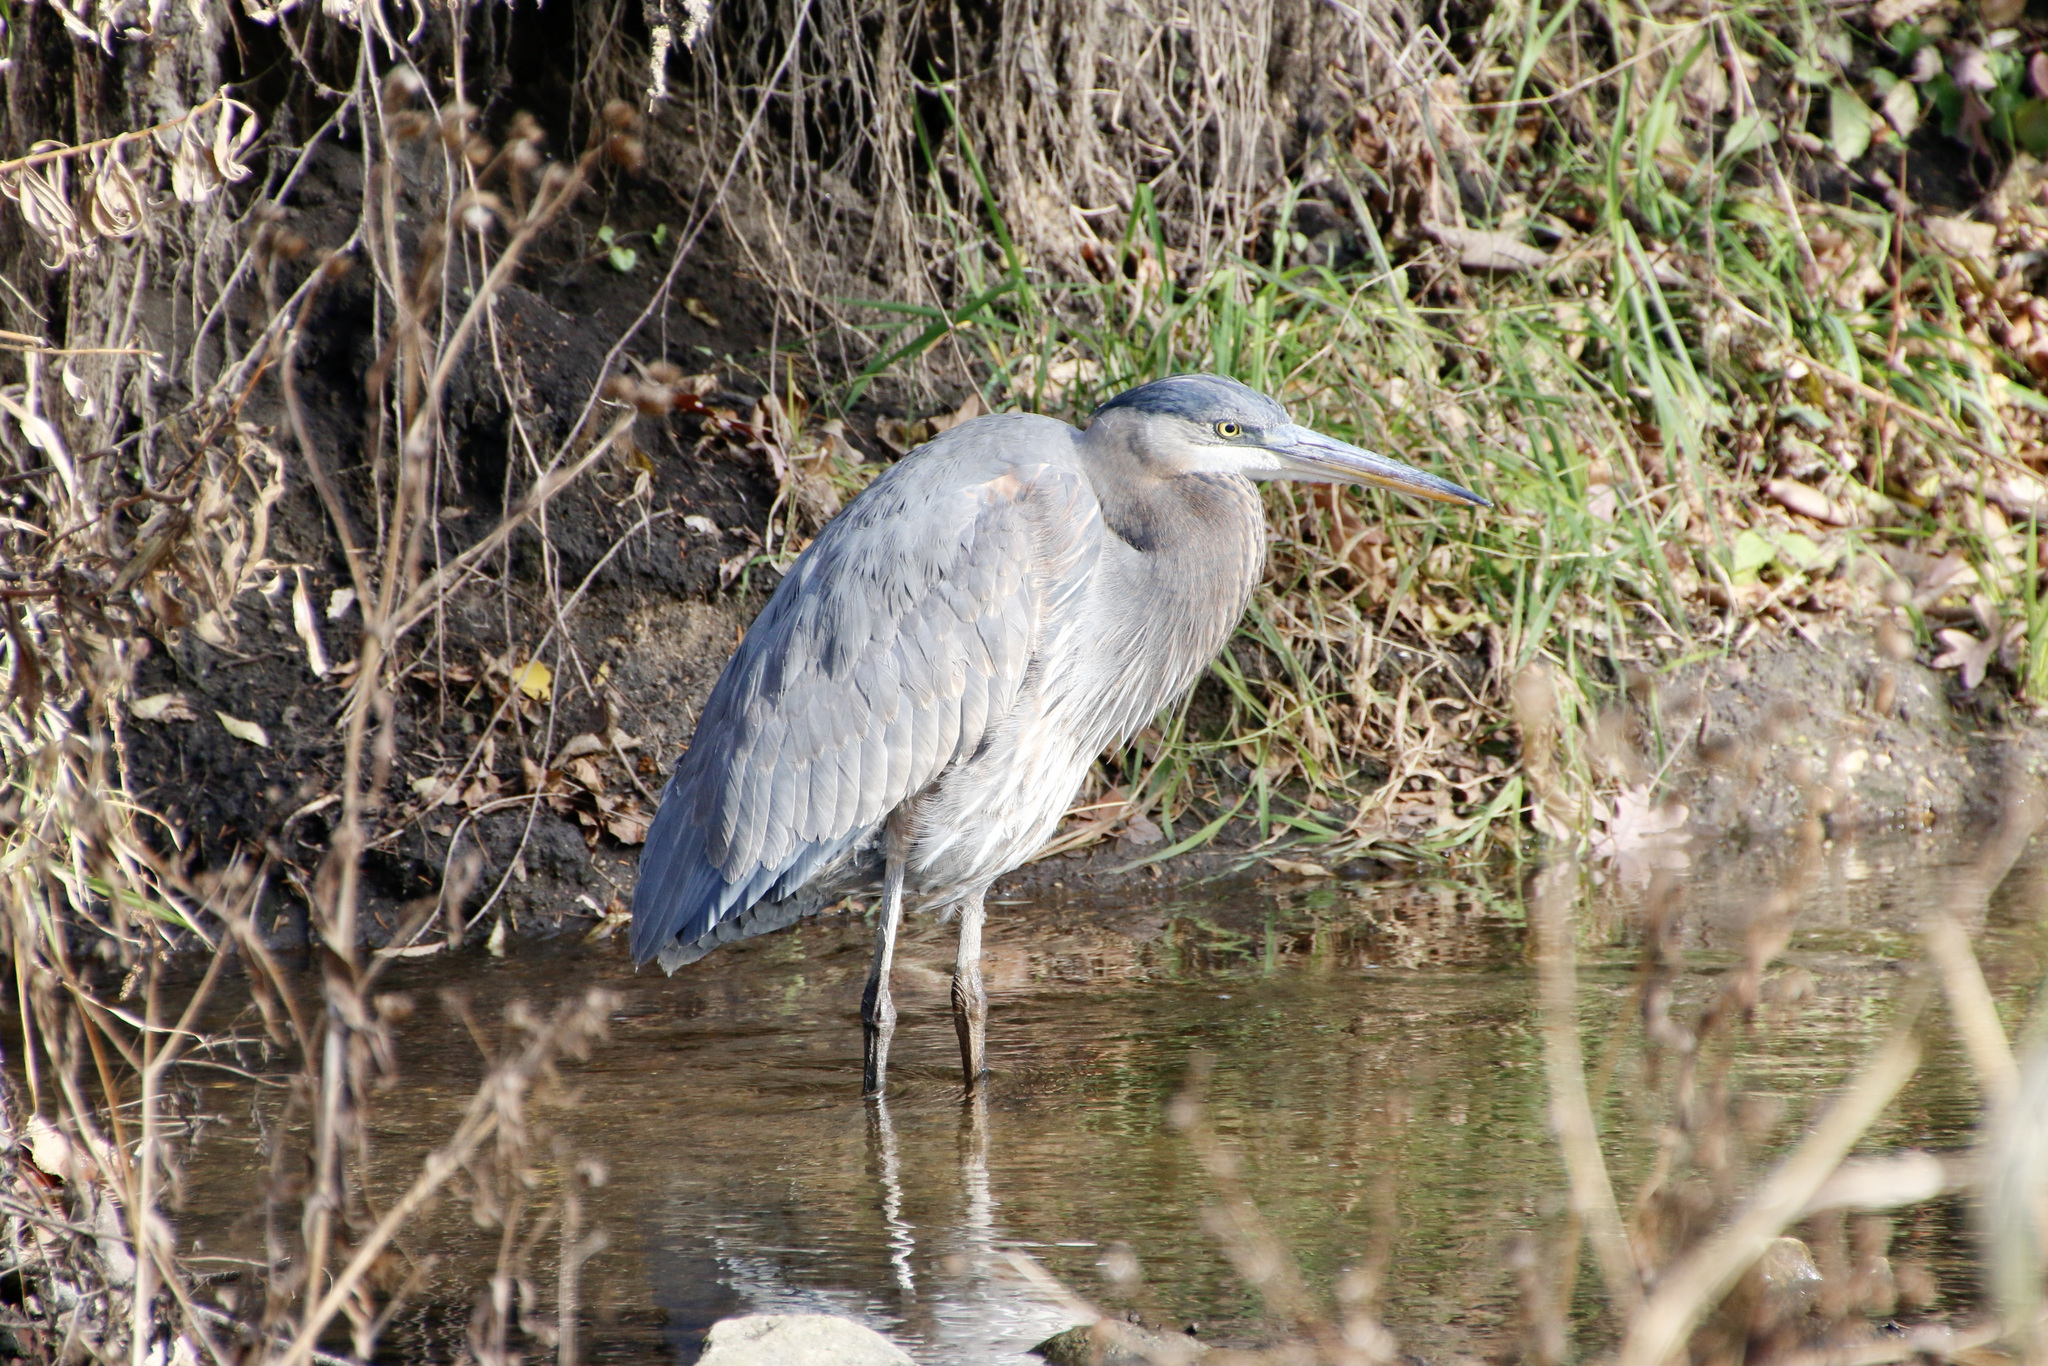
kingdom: Animalia
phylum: Chordata
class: Aves
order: Pelecaniformes
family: Ardeidae
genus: Ardea
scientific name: Ardea herodias
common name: Great blue heron
